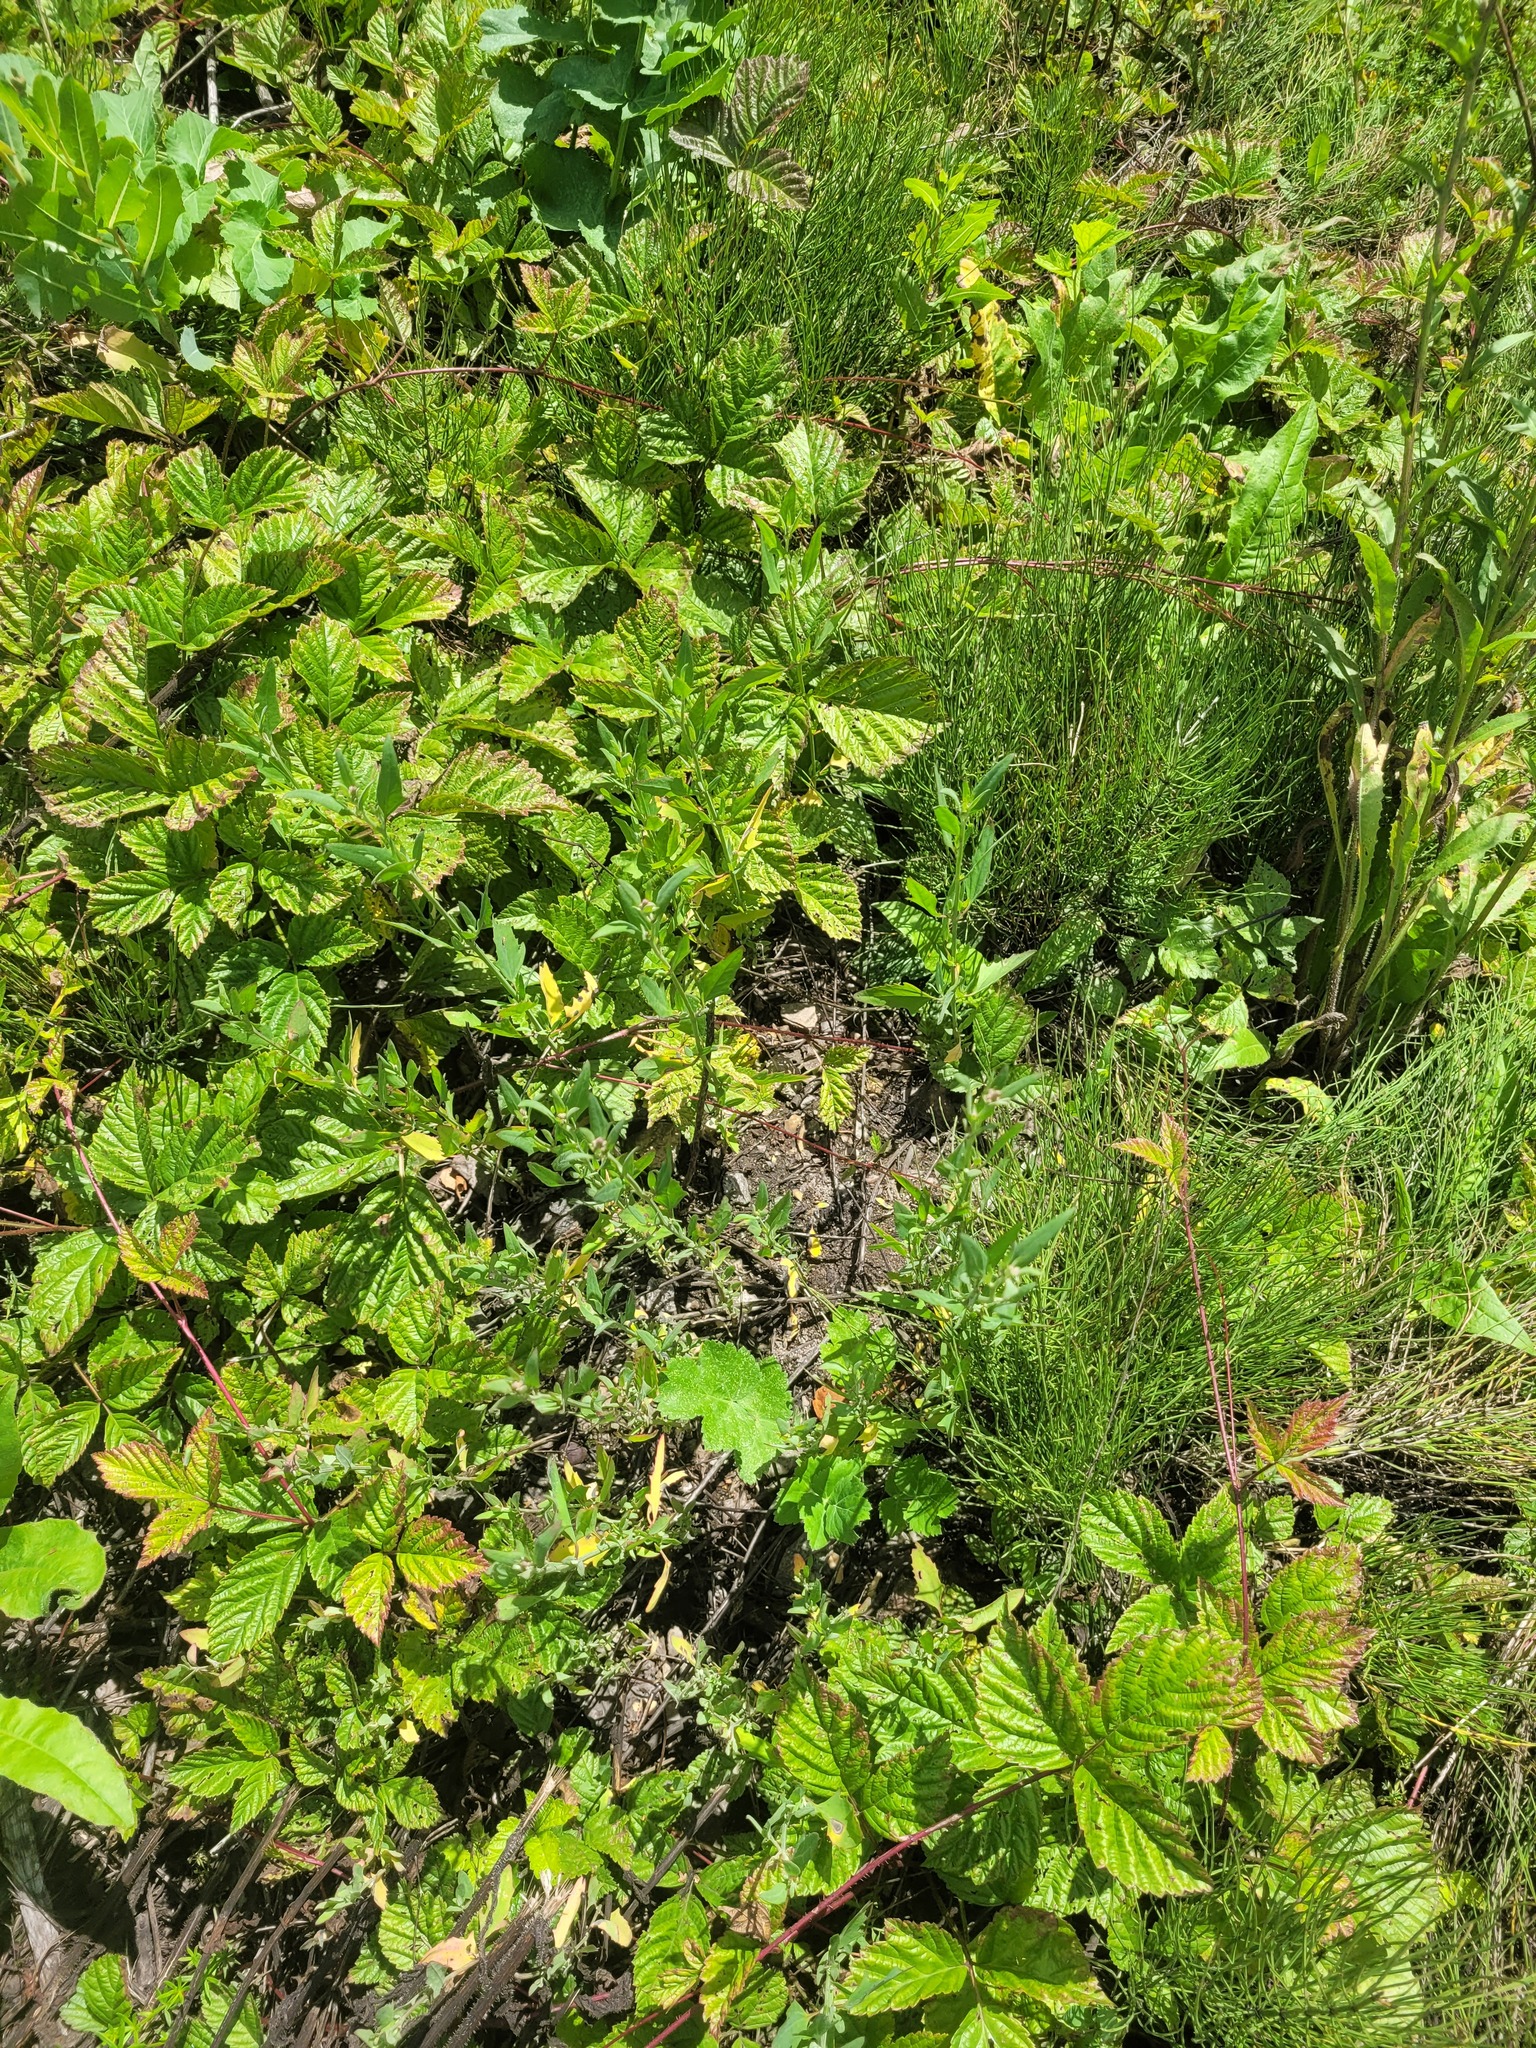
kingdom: Plantae
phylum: Tracheophyta
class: Magnoliopsida
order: Rosales
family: Rosaceae
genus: Rubus
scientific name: Rubus saxatilis
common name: Stone bramble
